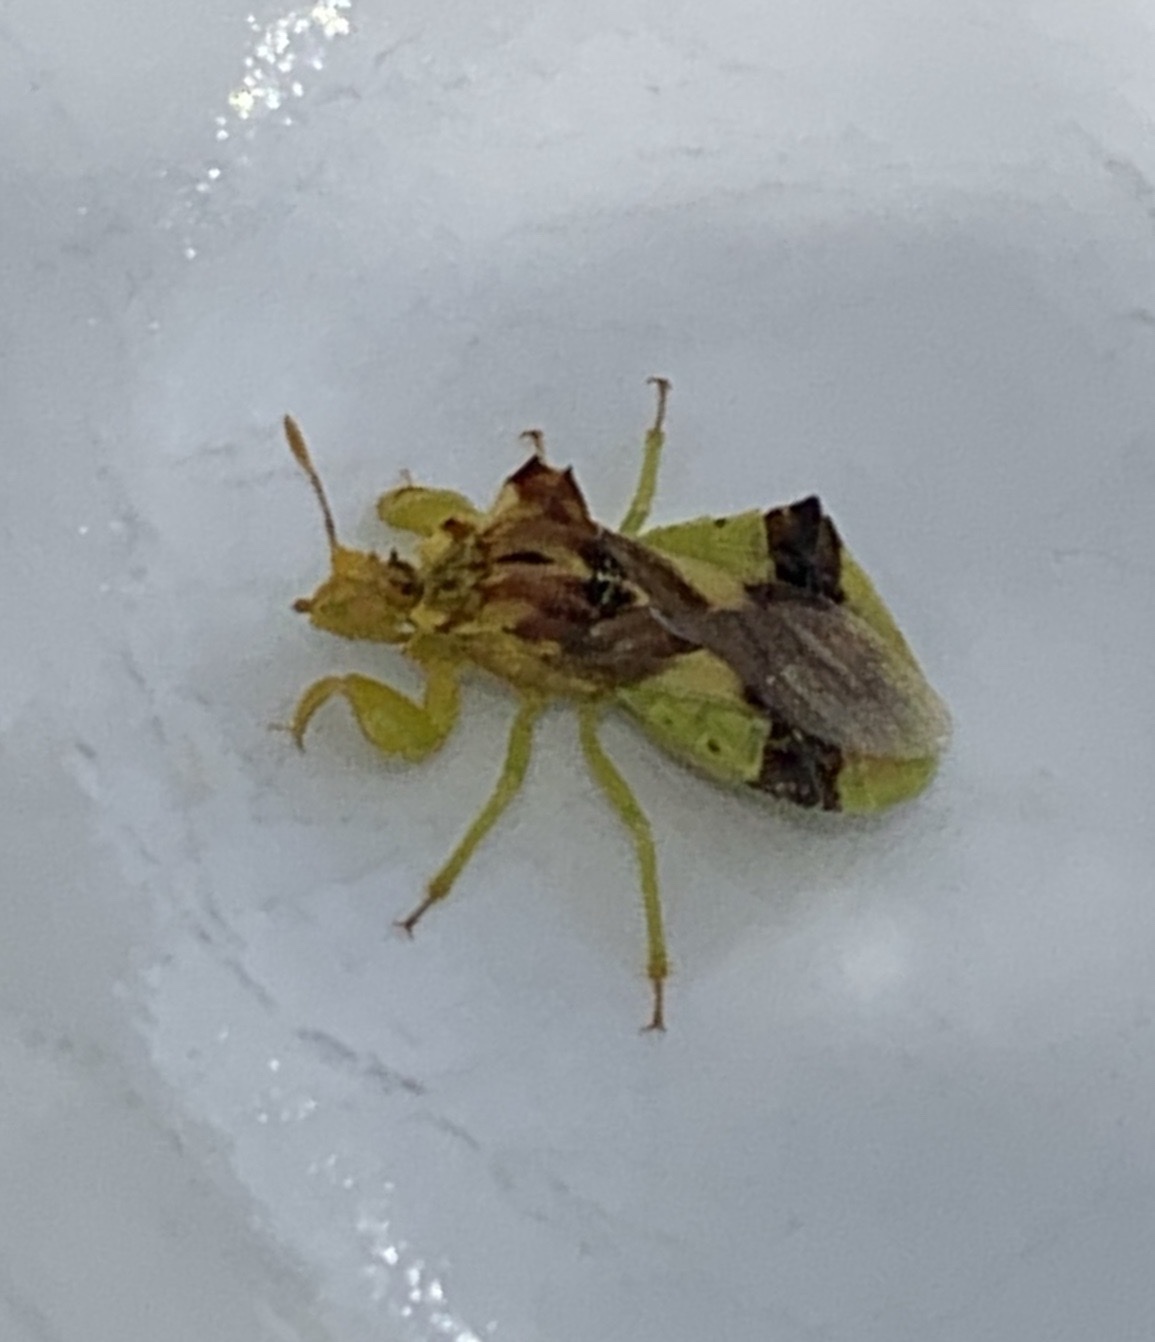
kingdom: Animalia
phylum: Arthropoda
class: Insecta
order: Hemiptera
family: Reduviidae
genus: Phymata
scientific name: Phymata americana
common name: Jagged ambush bug
